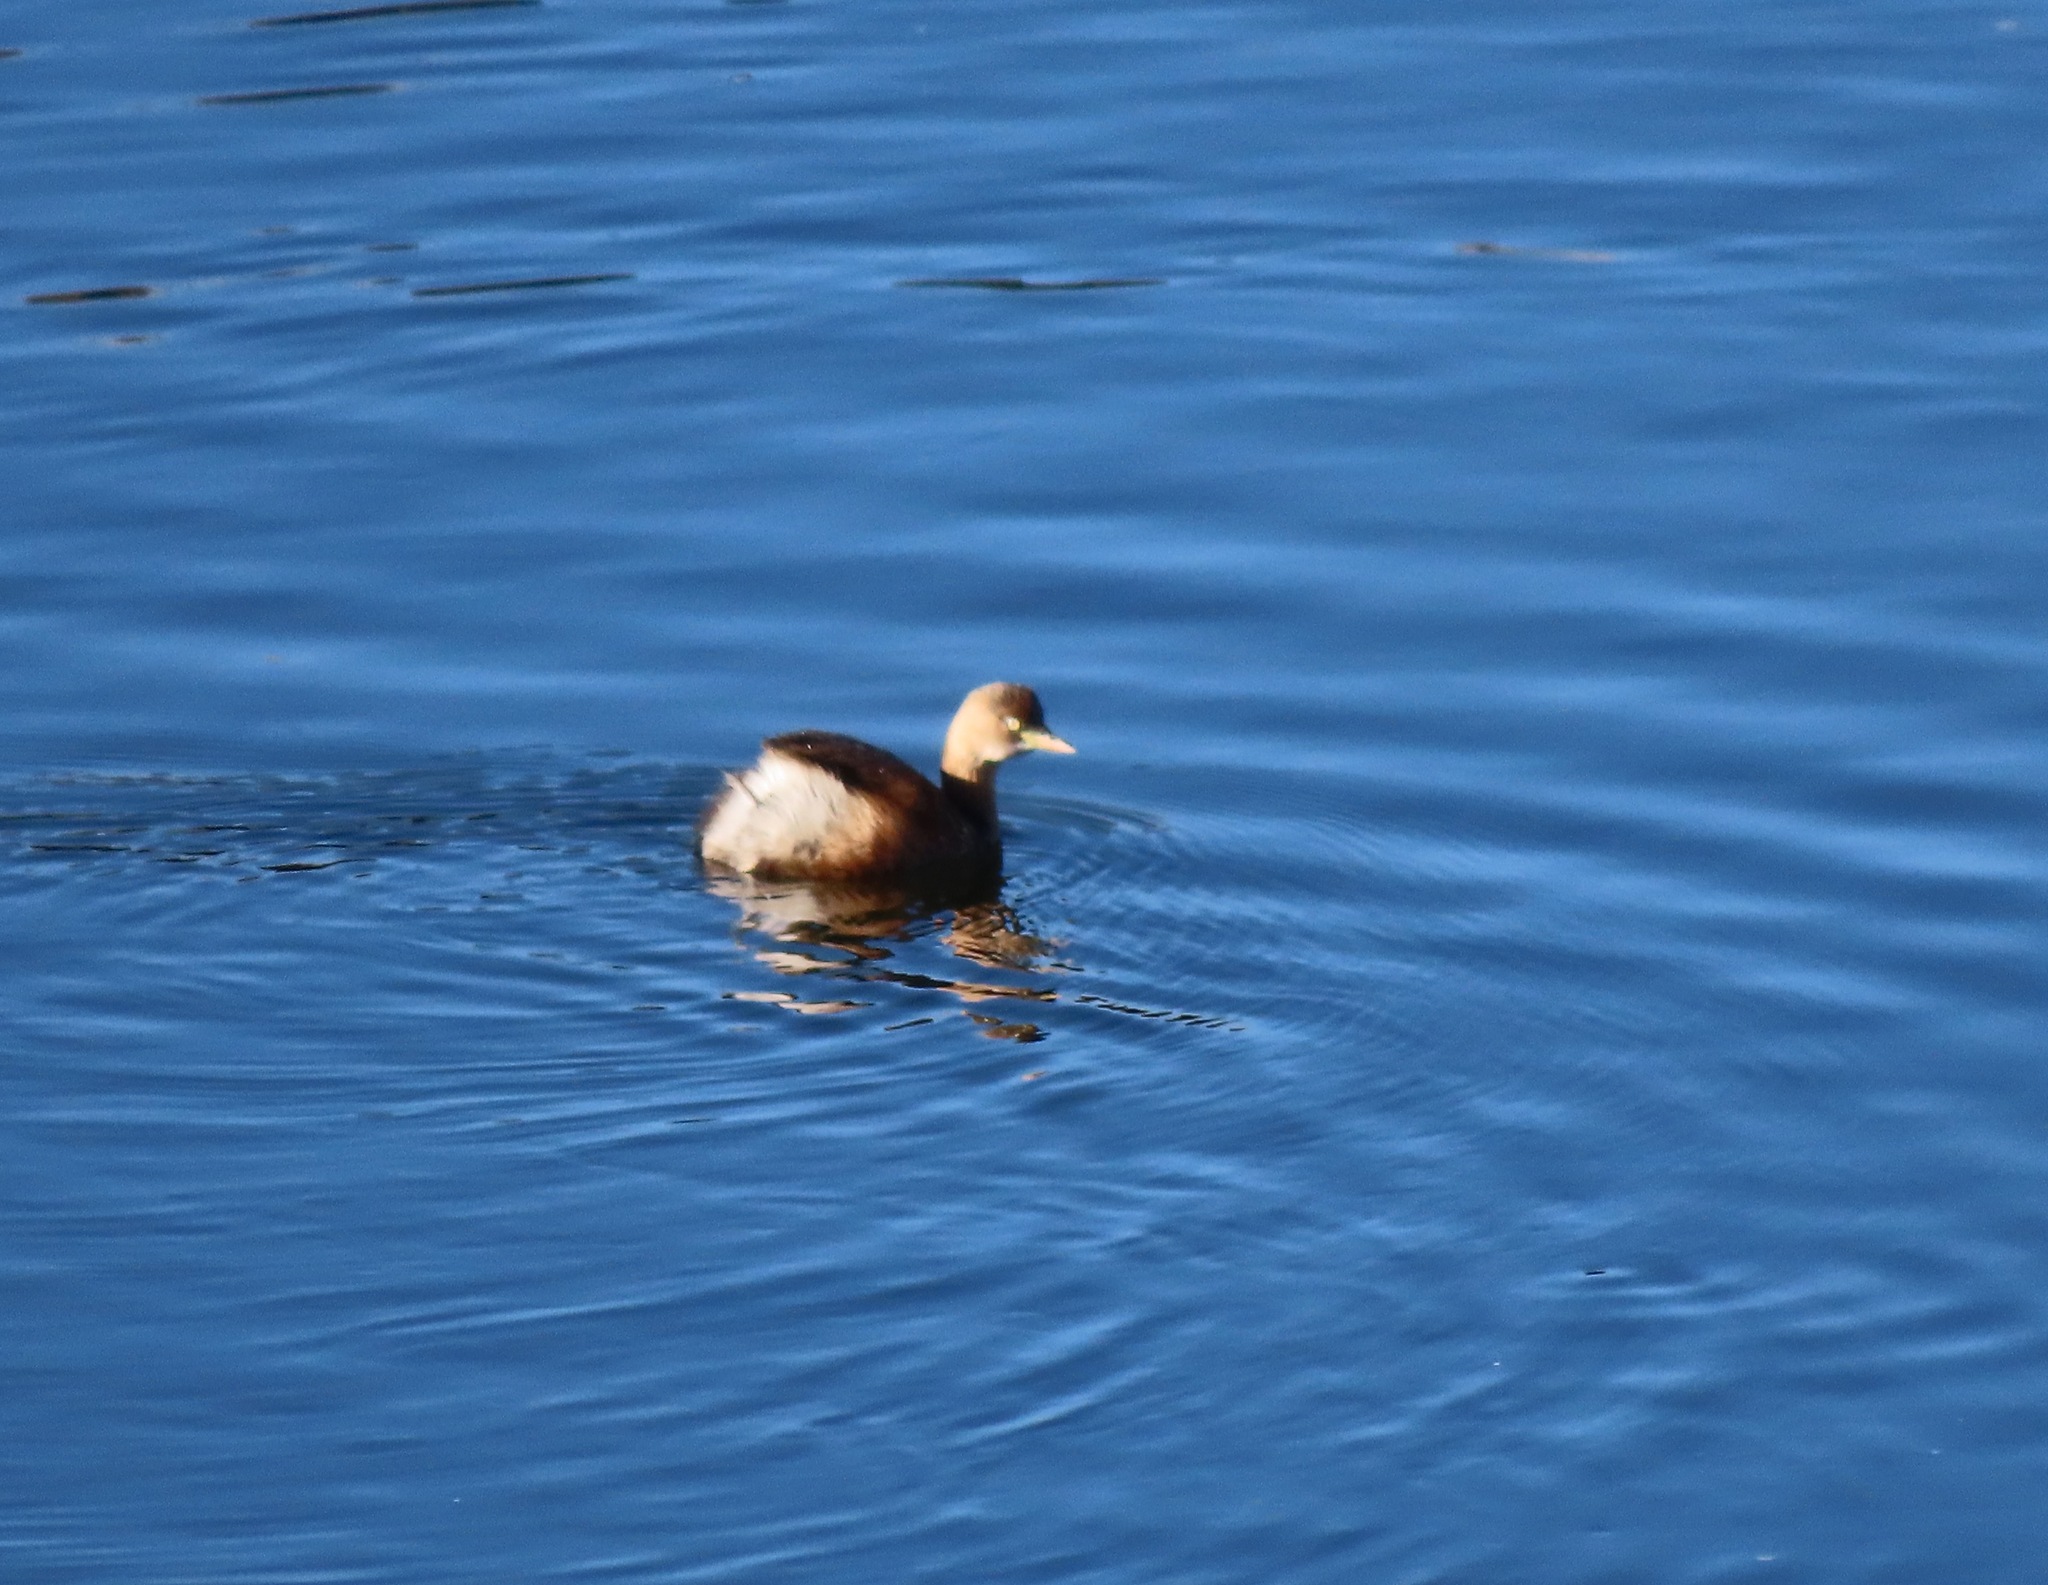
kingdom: Animalia
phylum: Chordata
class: Aves
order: Podicipediformes
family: Podicipedidae
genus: Tachybaptus
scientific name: Tachybaptus ruficollis
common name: Little grebe
